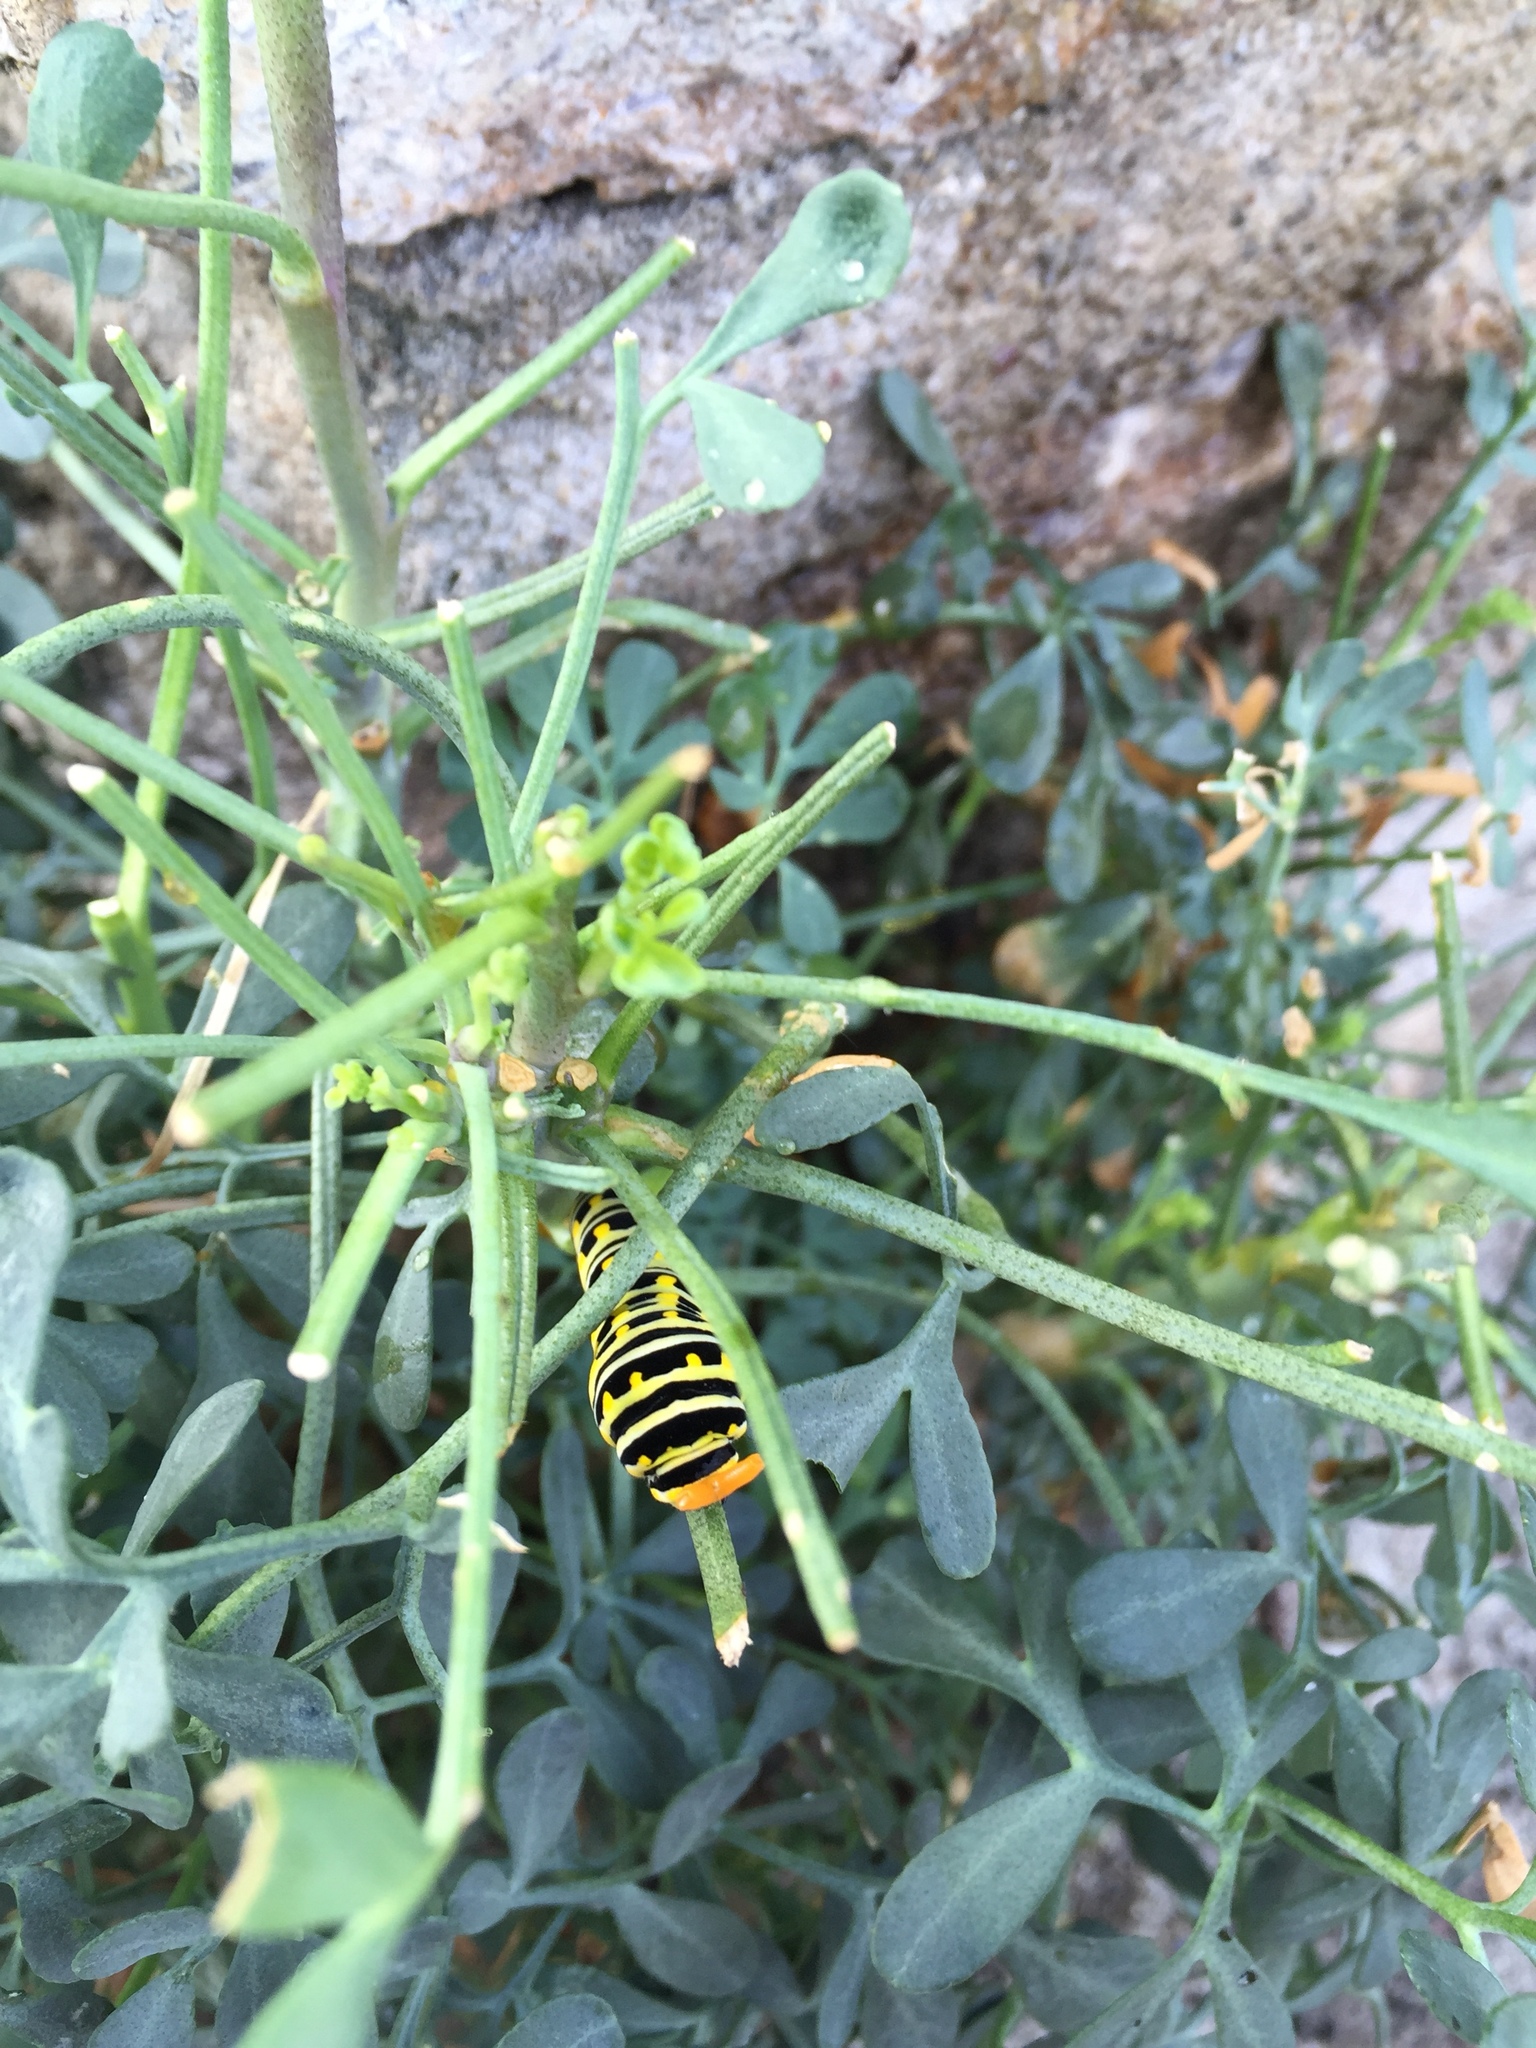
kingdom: Animalia
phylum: Arthropoda
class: Insecta
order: Lepidoptera
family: Papilionidae
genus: Papilio
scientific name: Papilio polyxenes
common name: Black swallowtail
